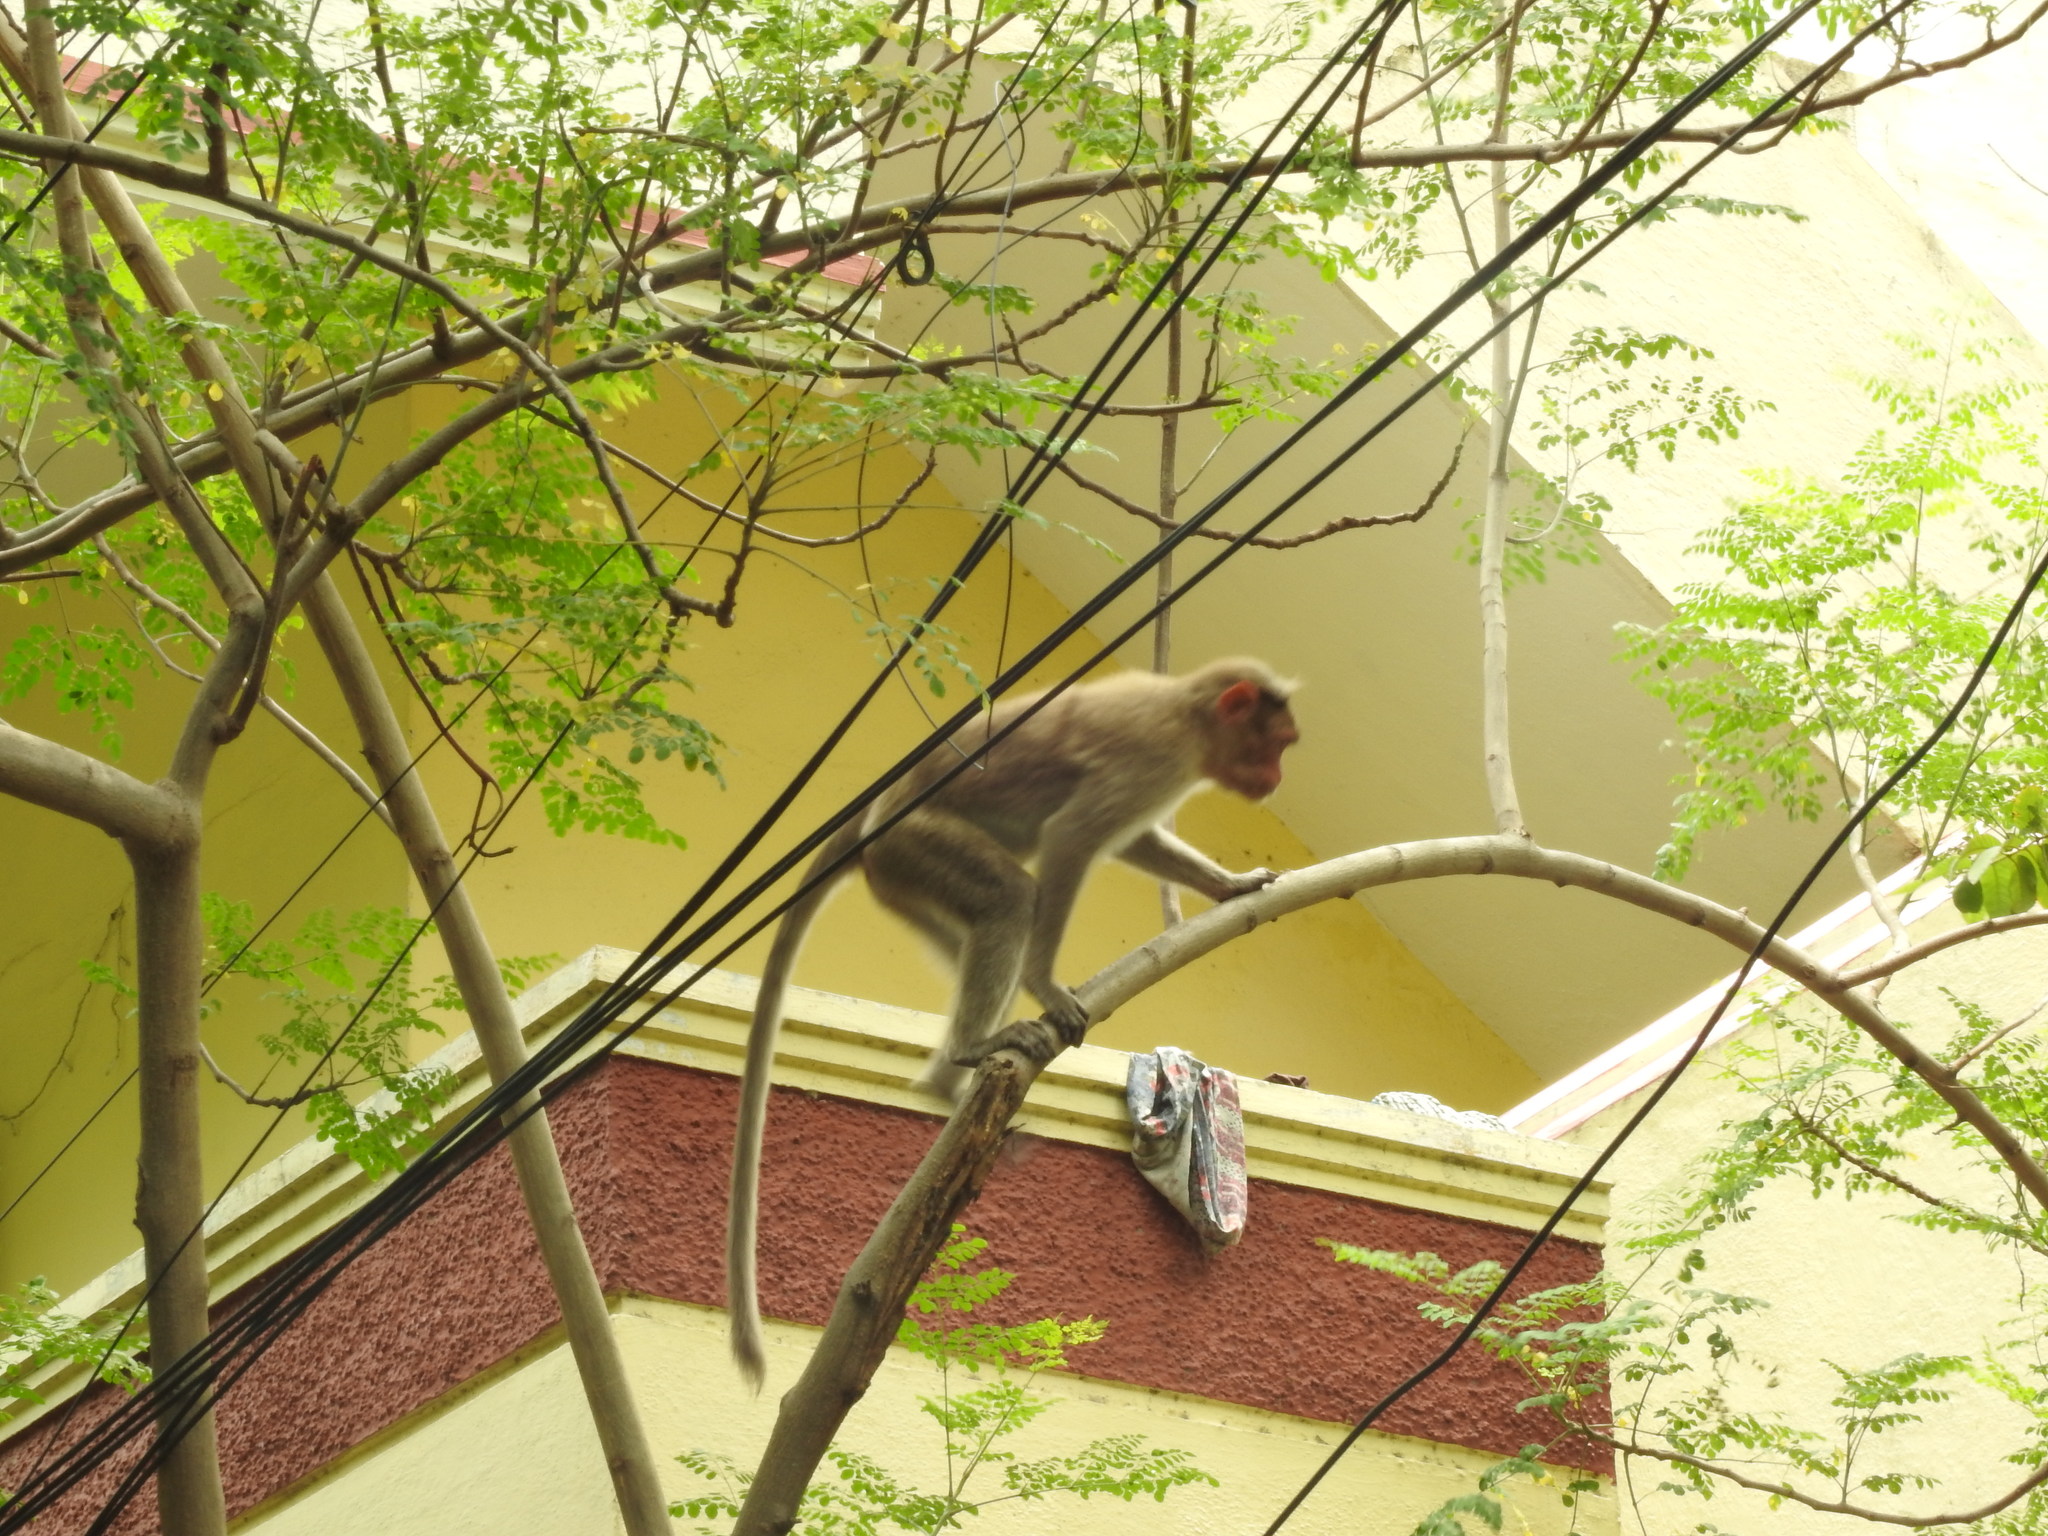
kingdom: Animalia
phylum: Chordata
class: Mammalia
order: Primates
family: Cercopithecidae
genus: Macaca
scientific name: Macaca radiata
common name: Bonnet macaque
